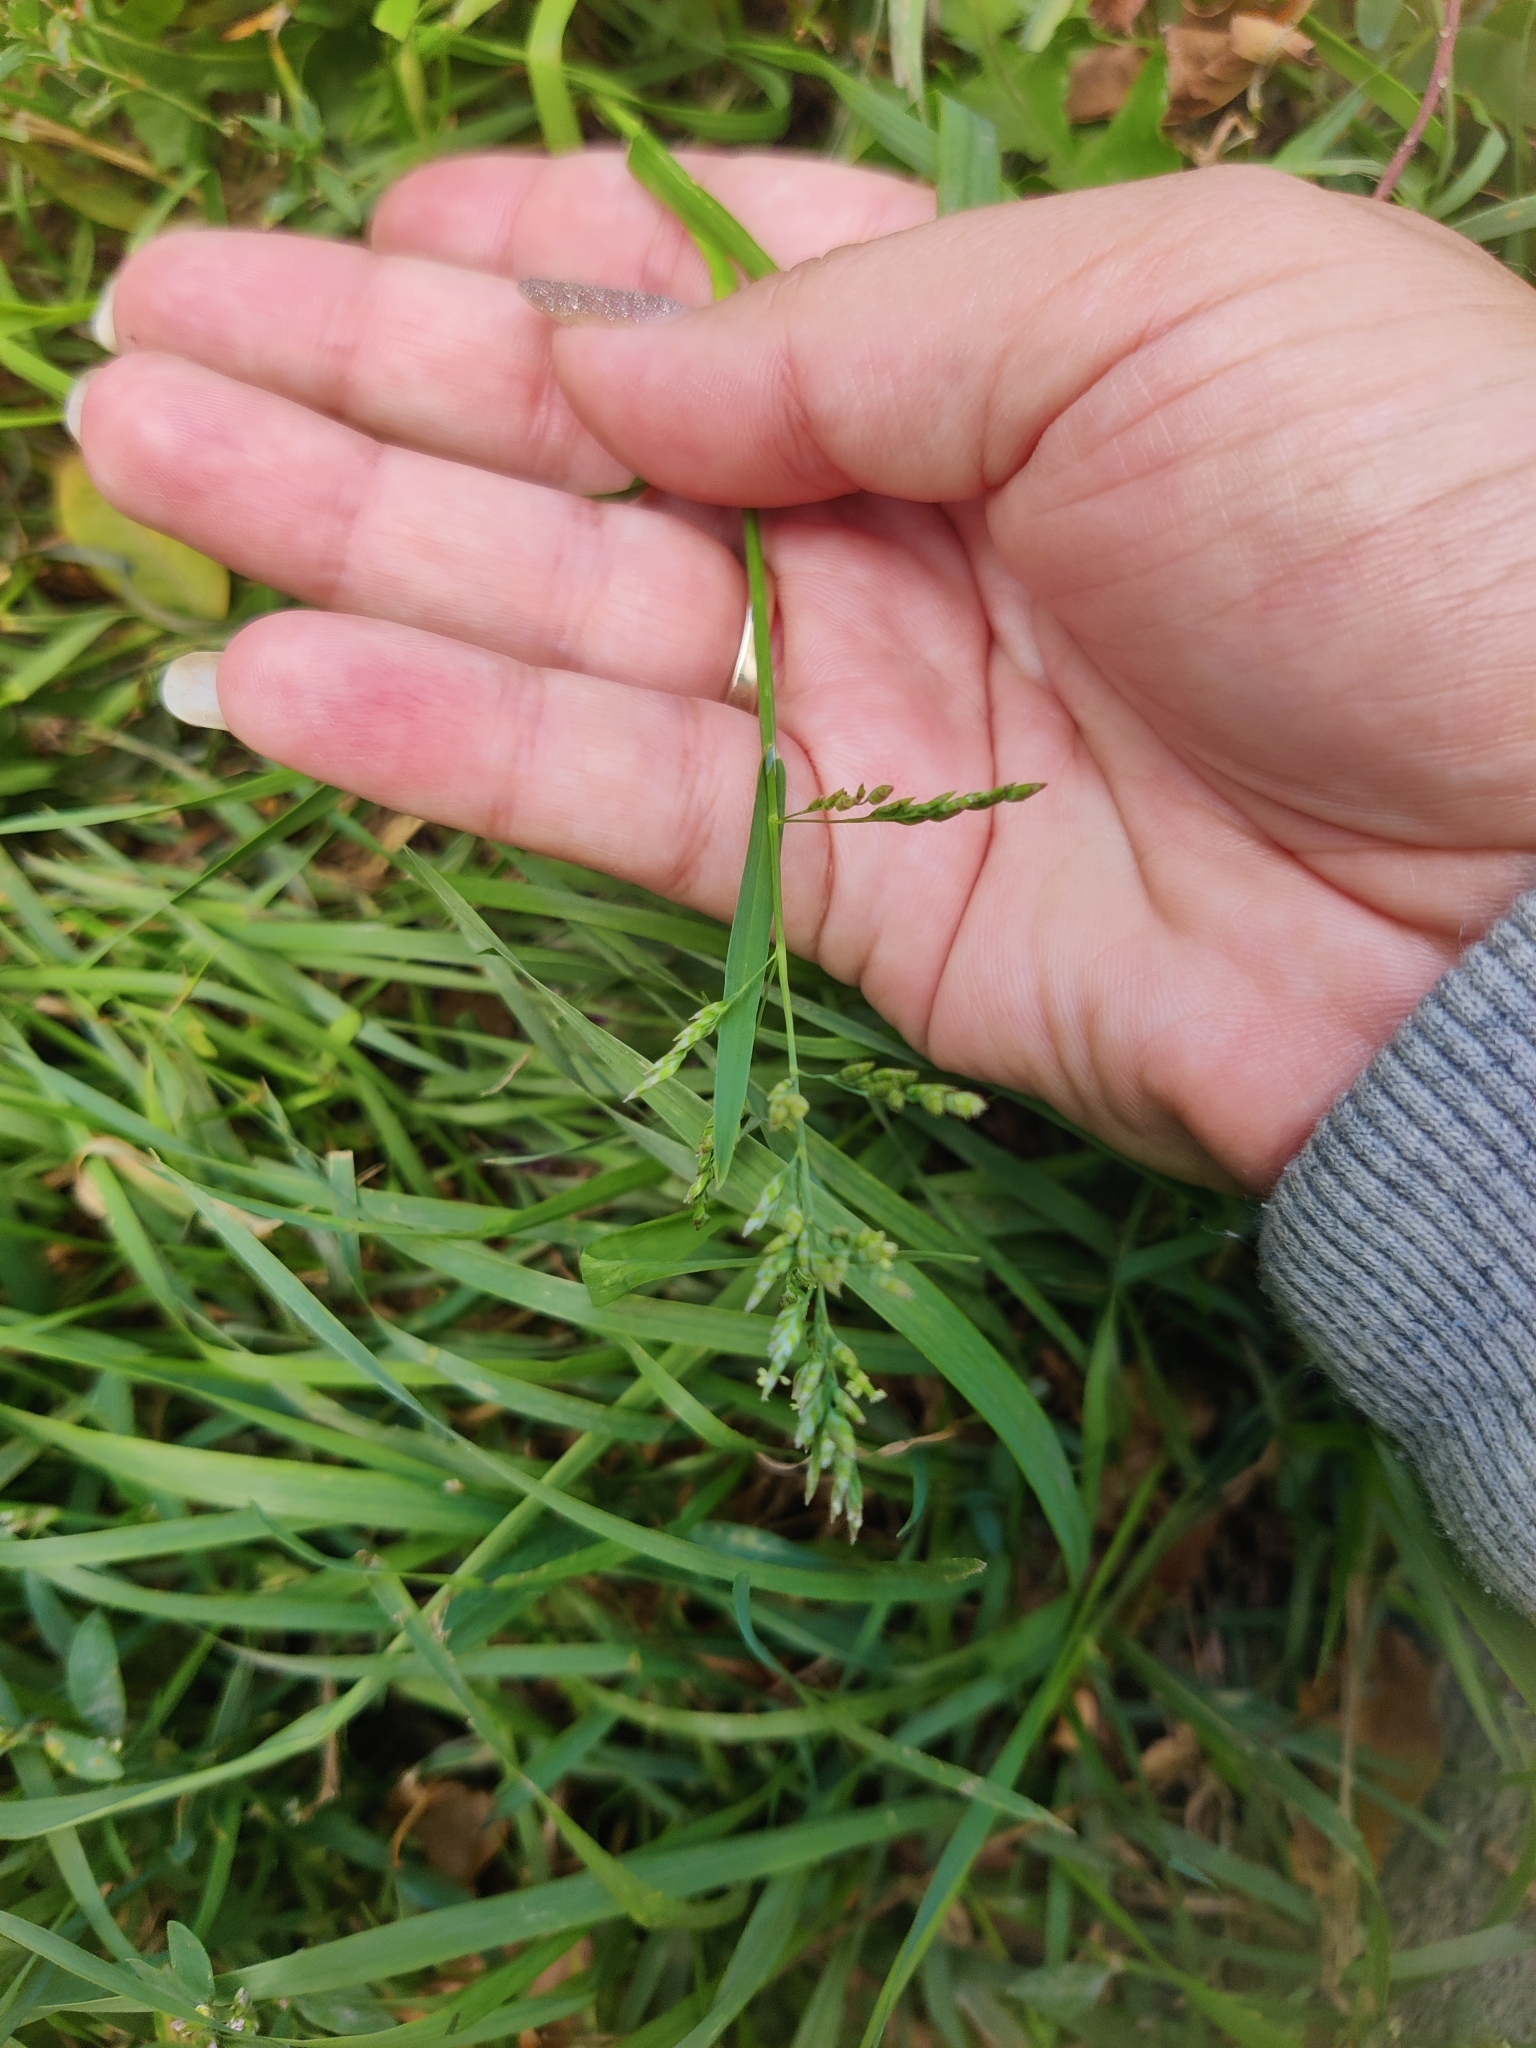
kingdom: Plantae
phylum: Tracheophyta
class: Liliopsida
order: Poales
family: Poaceae
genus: Poa
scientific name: Poa annua
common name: Annual bluegrass
